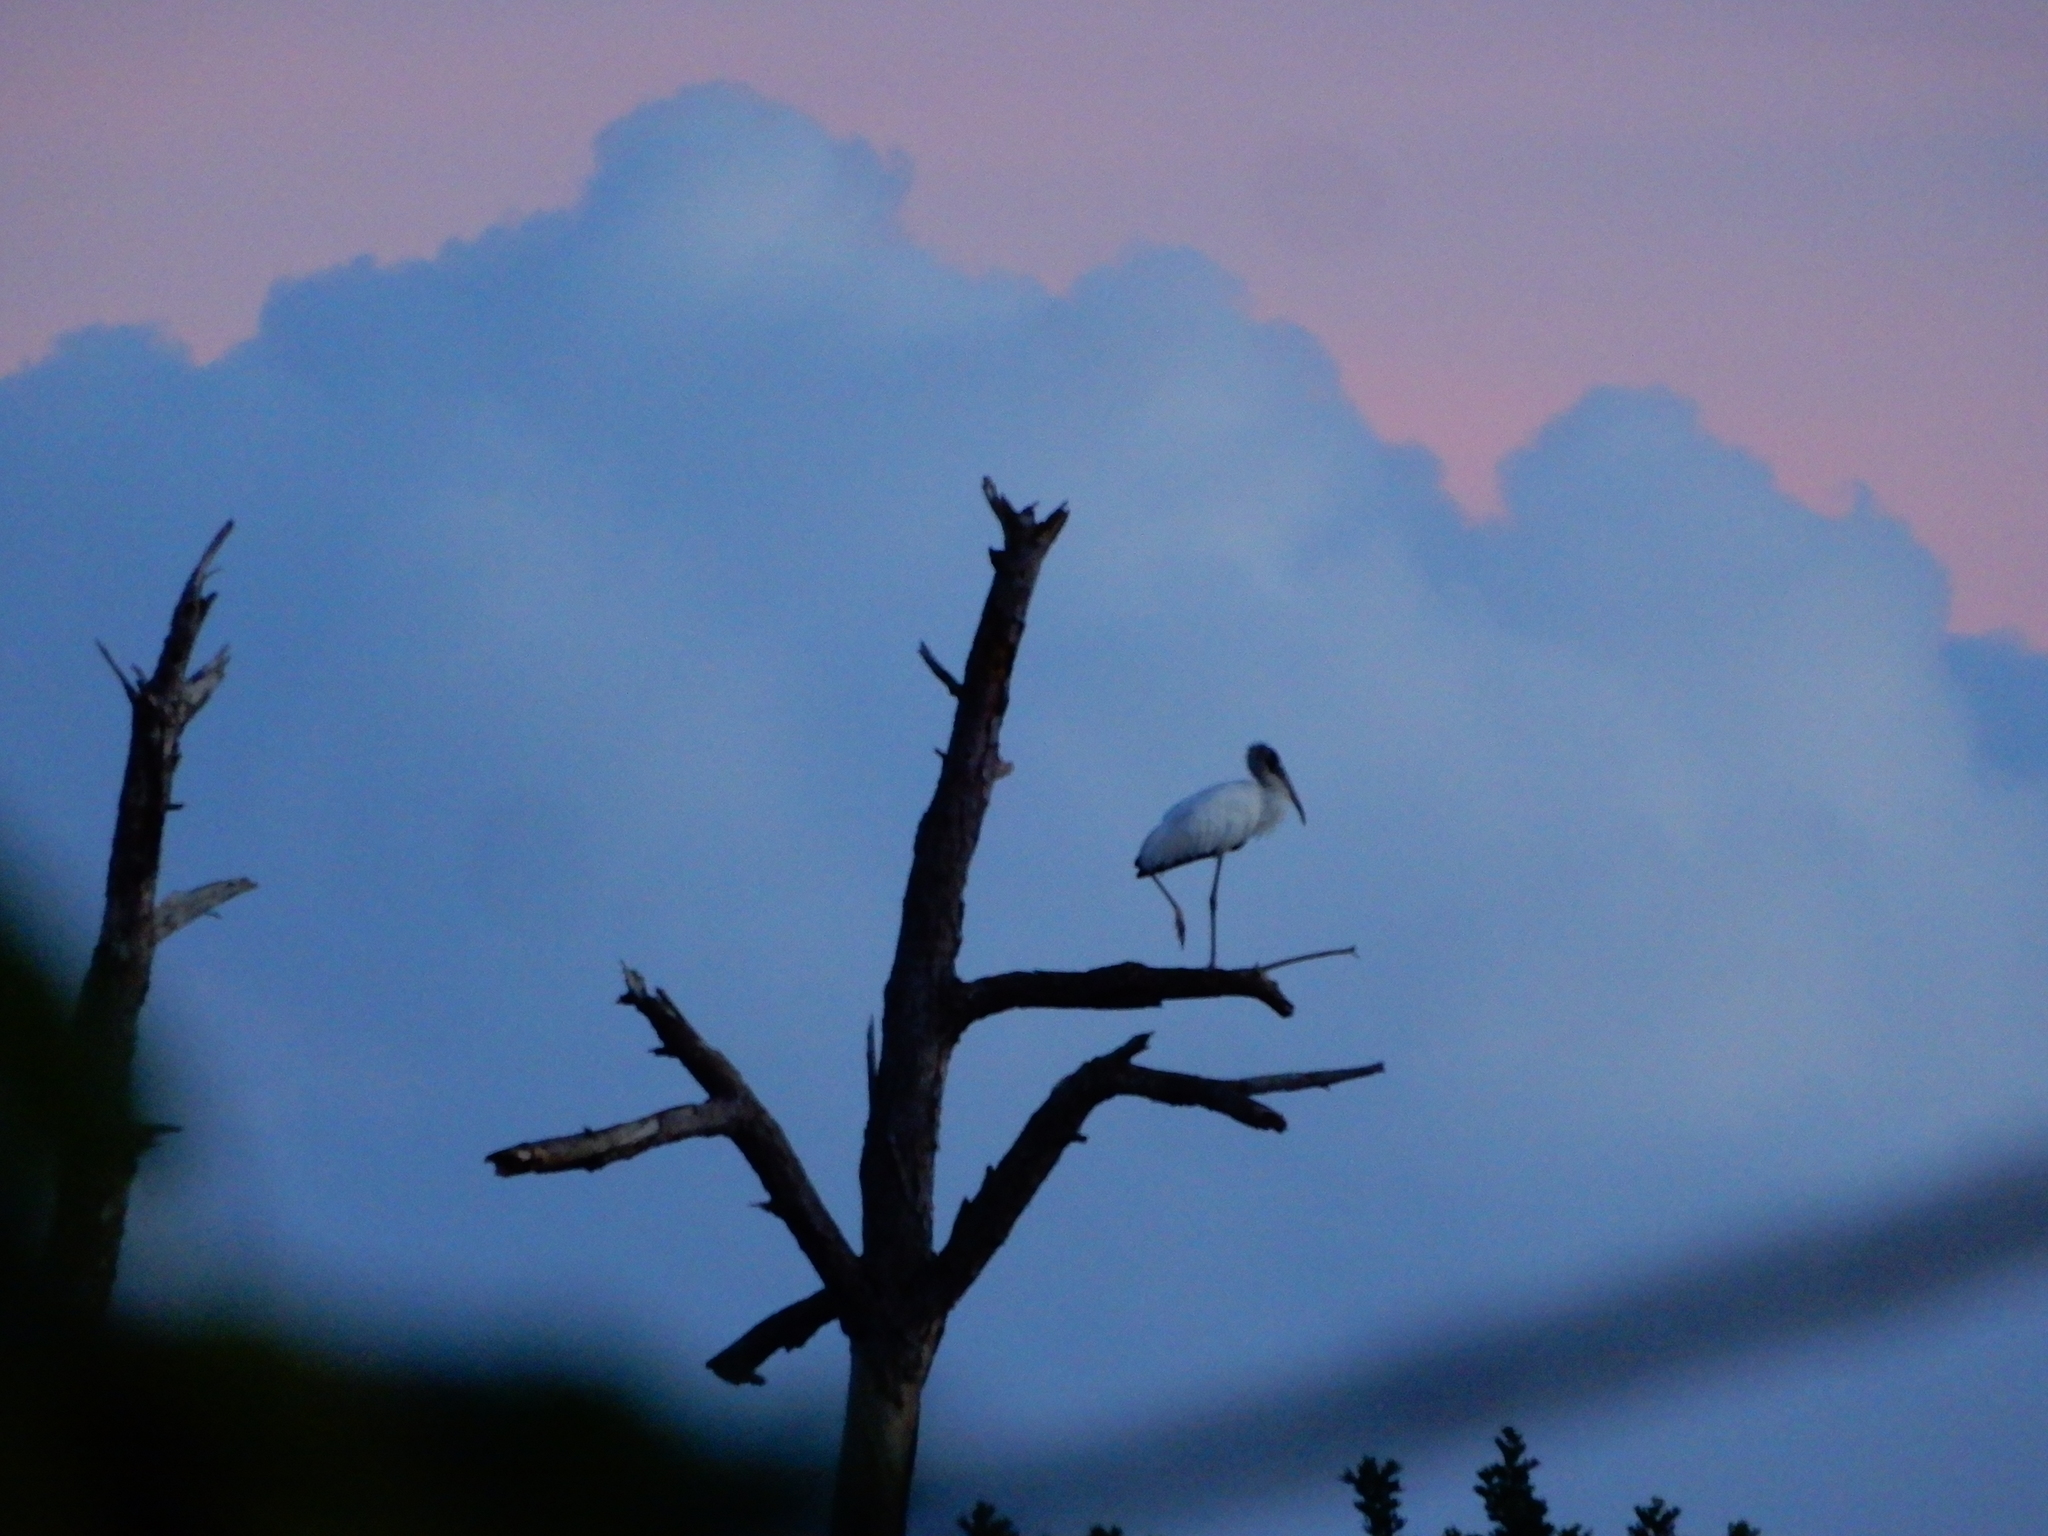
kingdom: Animalia
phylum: Chordata
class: Aves
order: Ciconiiformes
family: Ciconiidae
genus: Mycteria
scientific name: Mycteria americana
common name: Wood stork
